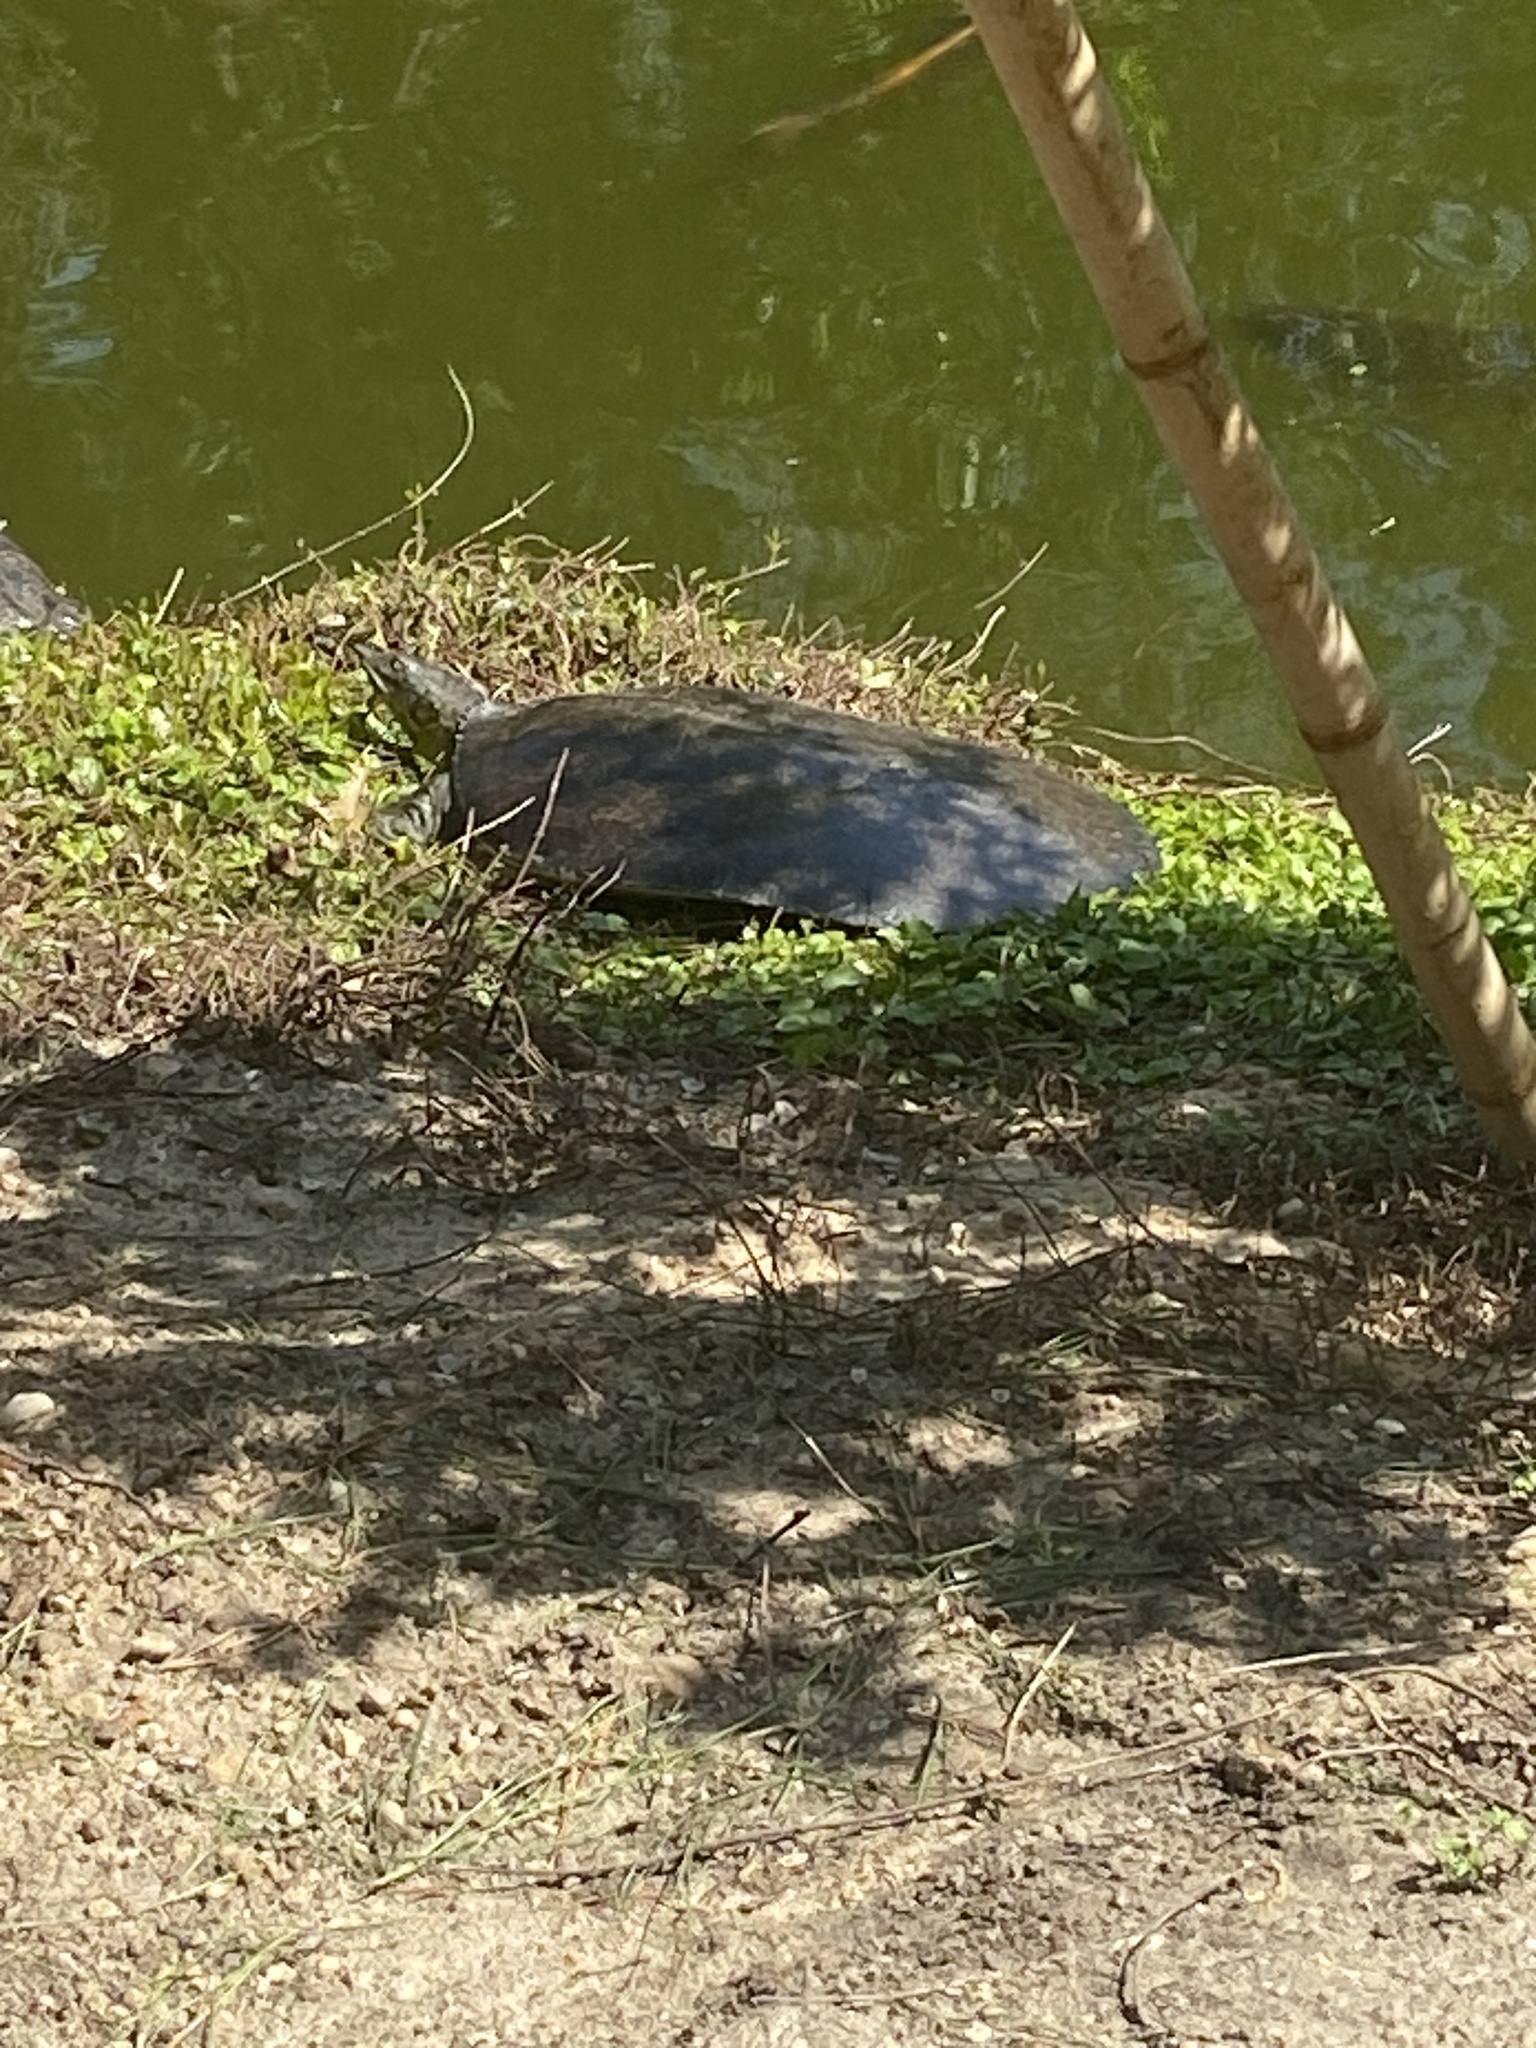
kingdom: Animalia
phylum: Chordata
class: Testudines
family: Trionychidae
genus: Apalone
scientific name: Apalone spinifera
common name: Spiny softshell turtle
